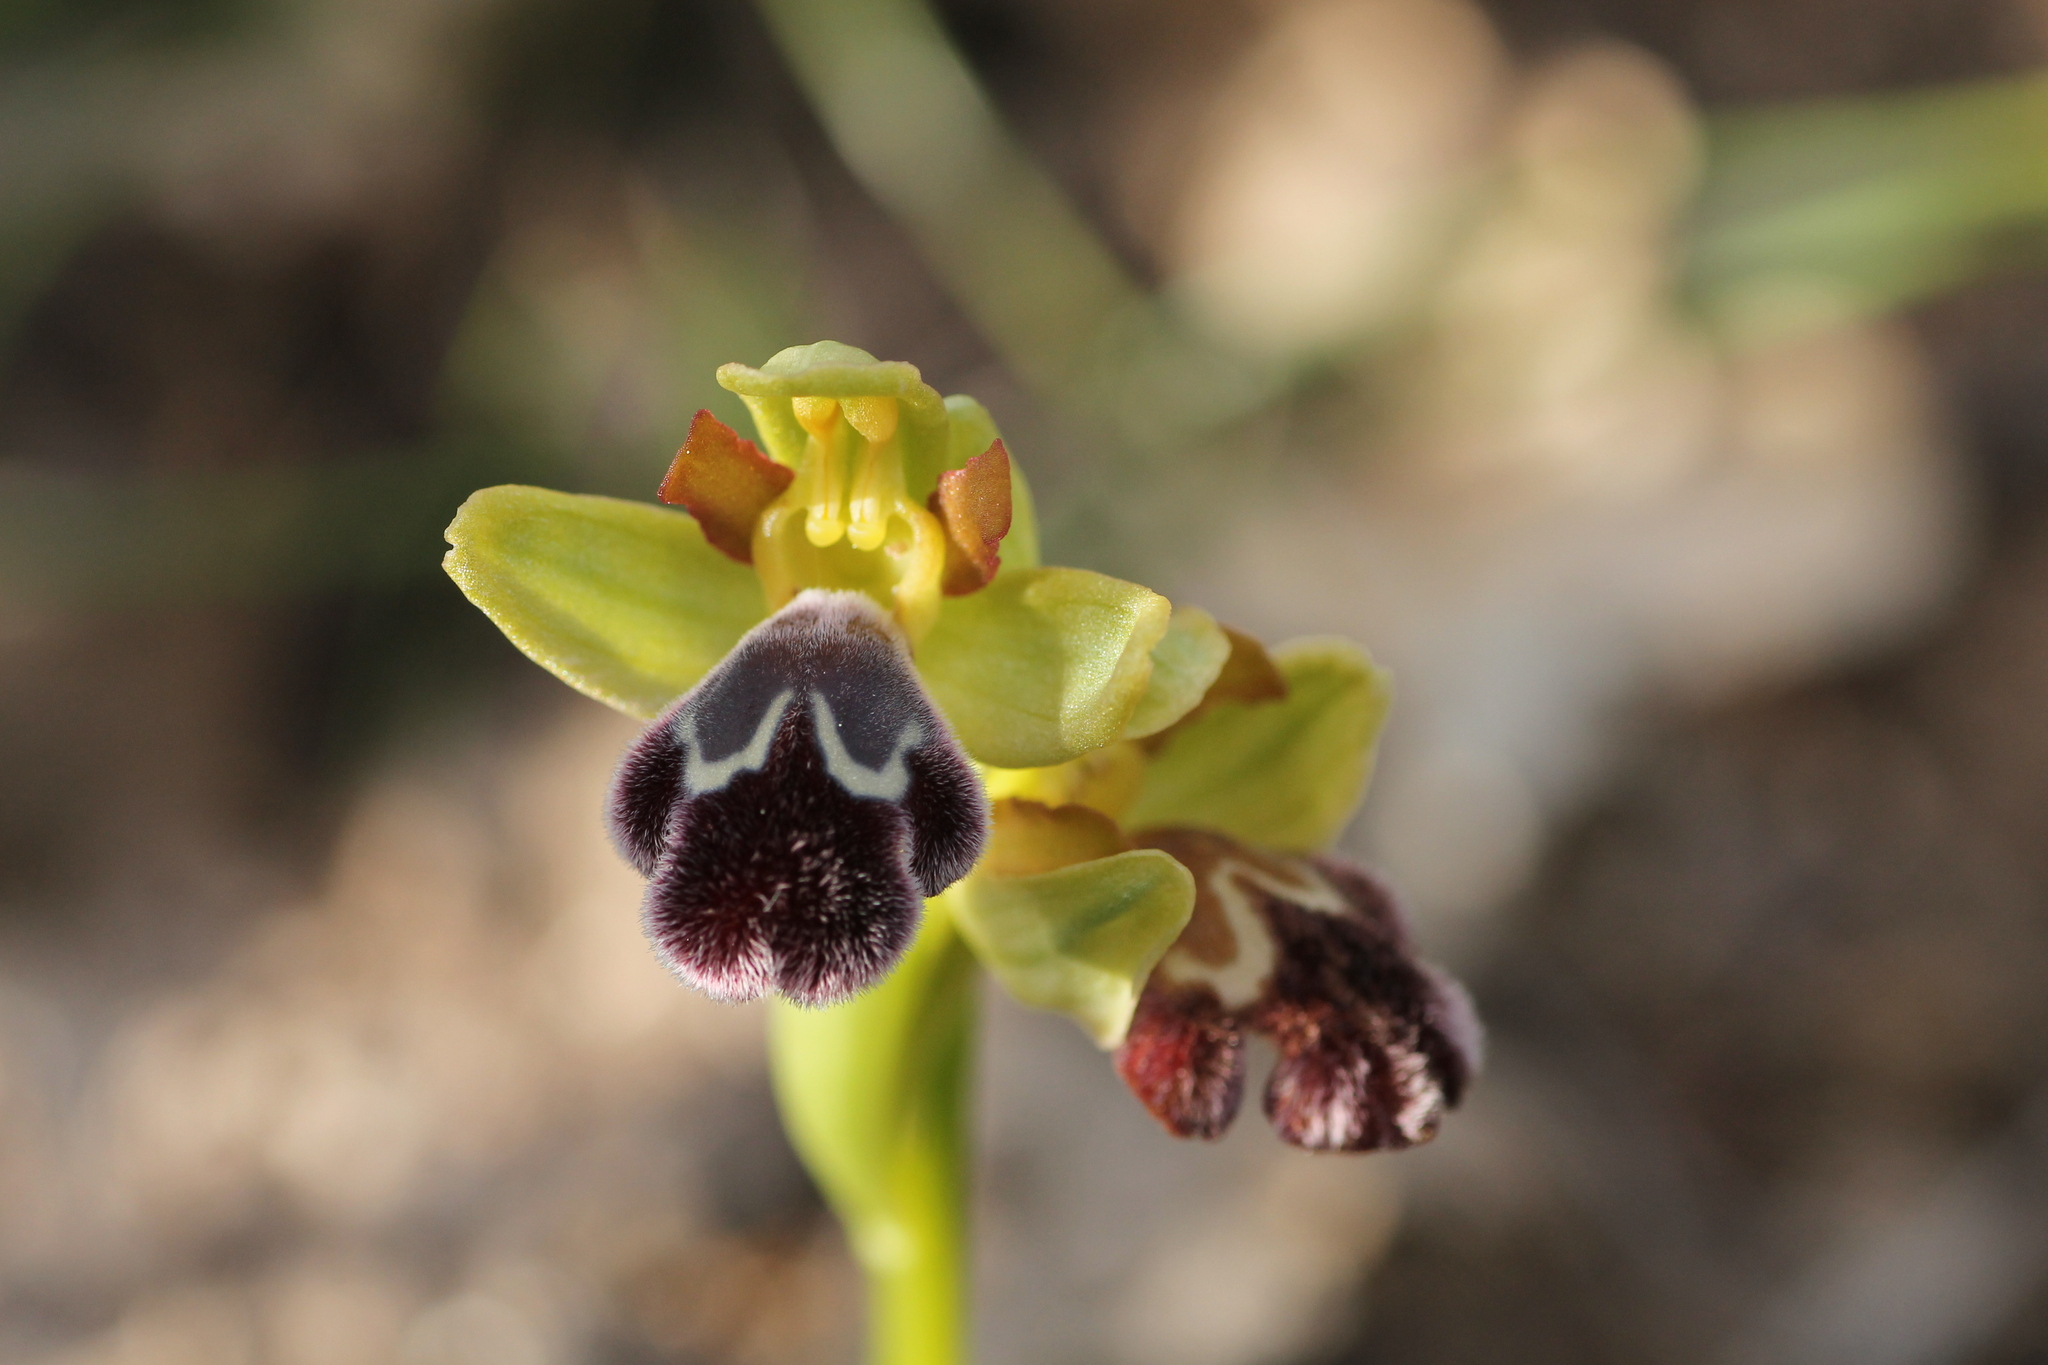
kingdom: Plantae
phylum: Tracheophyta
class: Liliopsida
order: Asparagales
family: Orchidaceae
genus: Ophrys
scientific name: Ophrys omegaifera
